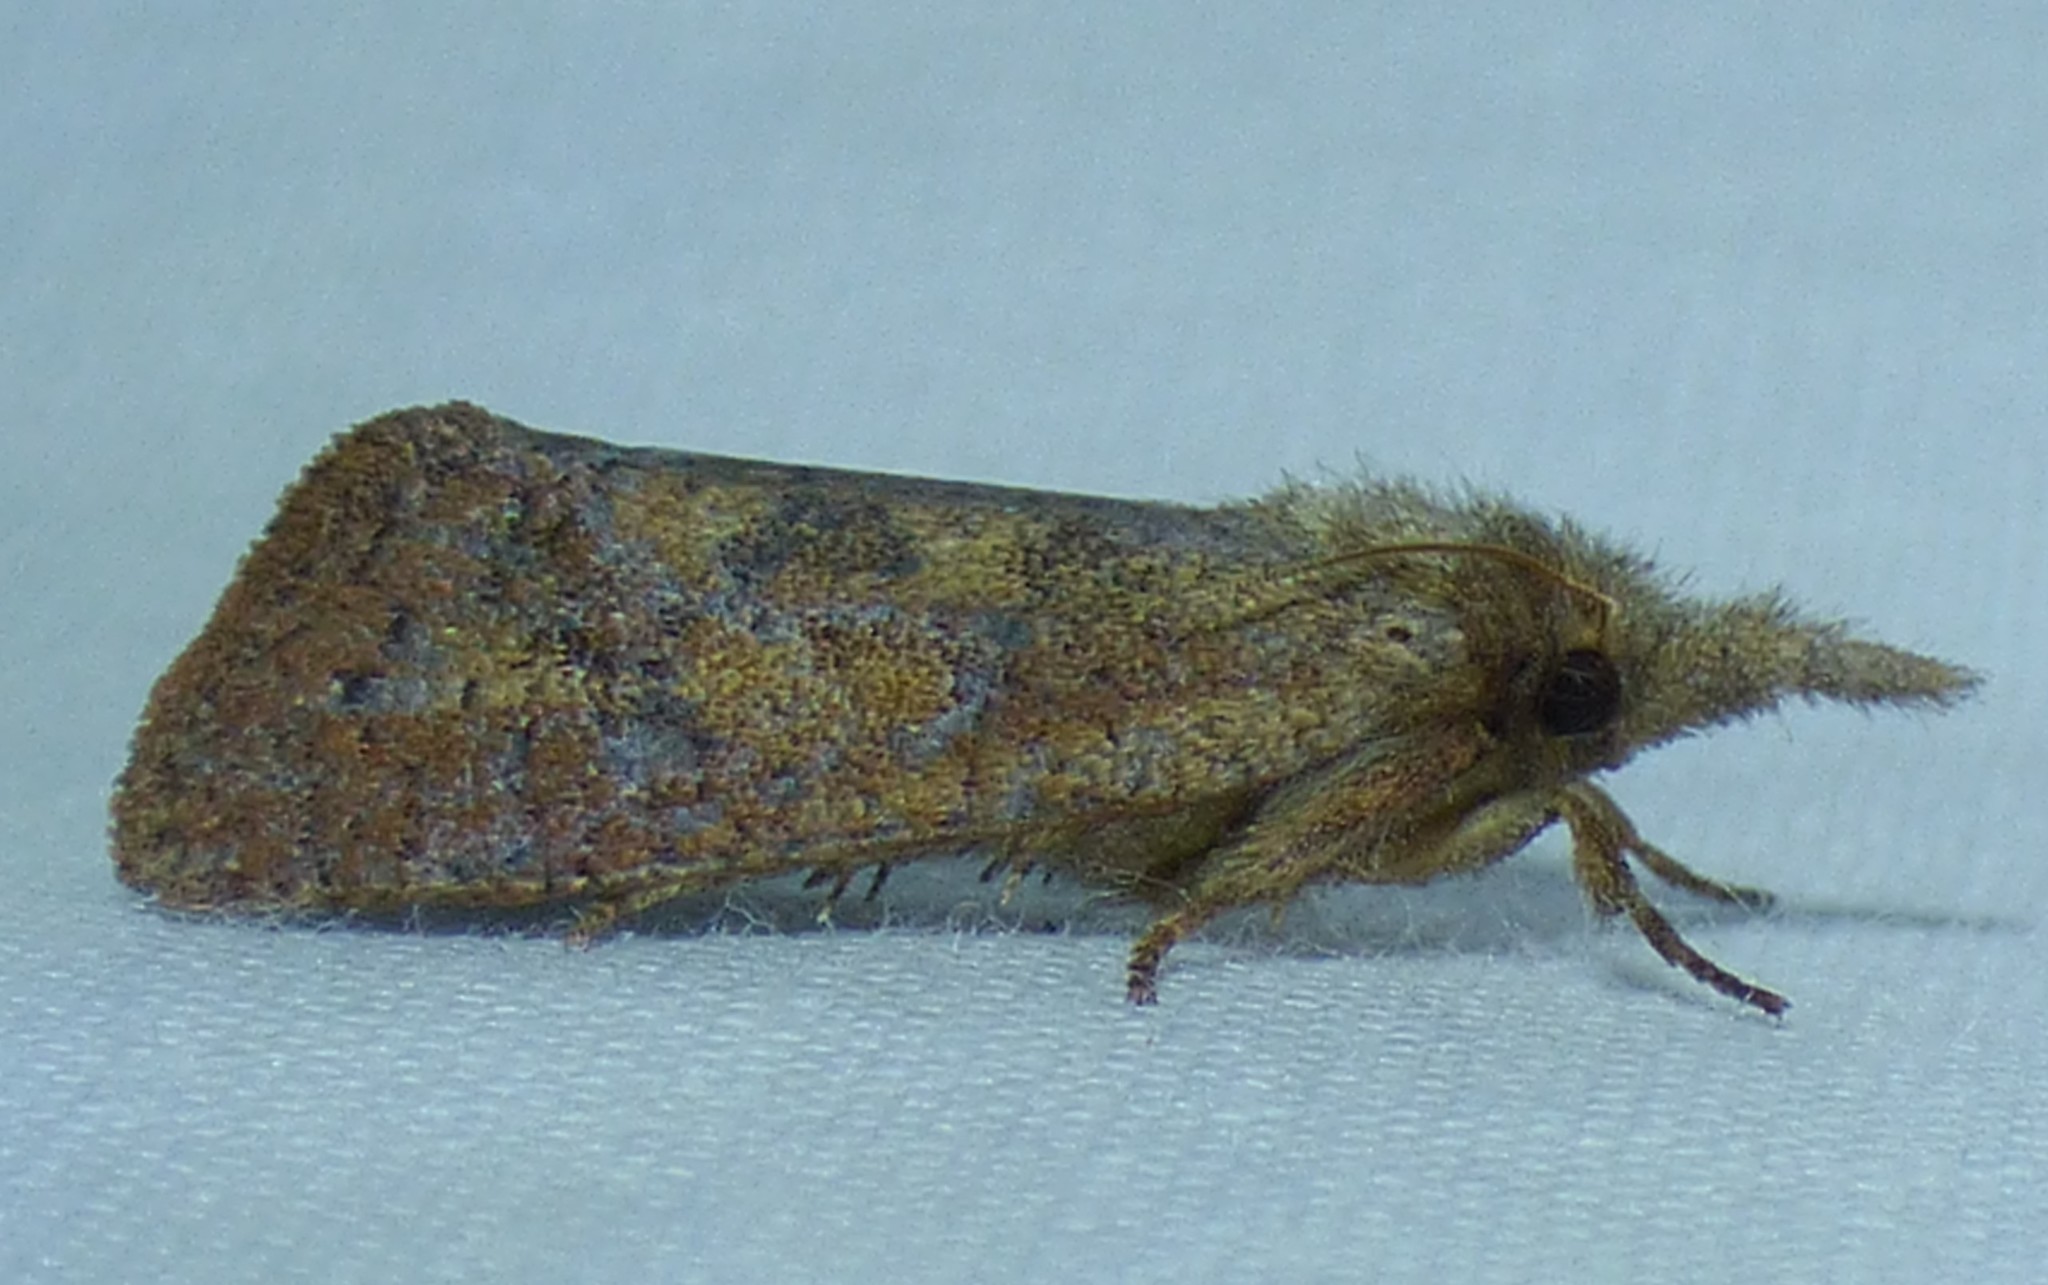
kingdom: Animalia
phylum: Arthropoda
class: Insecta
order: Lepidoptera
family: Tineidae
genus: Acrolophus
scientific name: Acrolophus plumifrontella
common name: Eastern grass tubeworm moth
